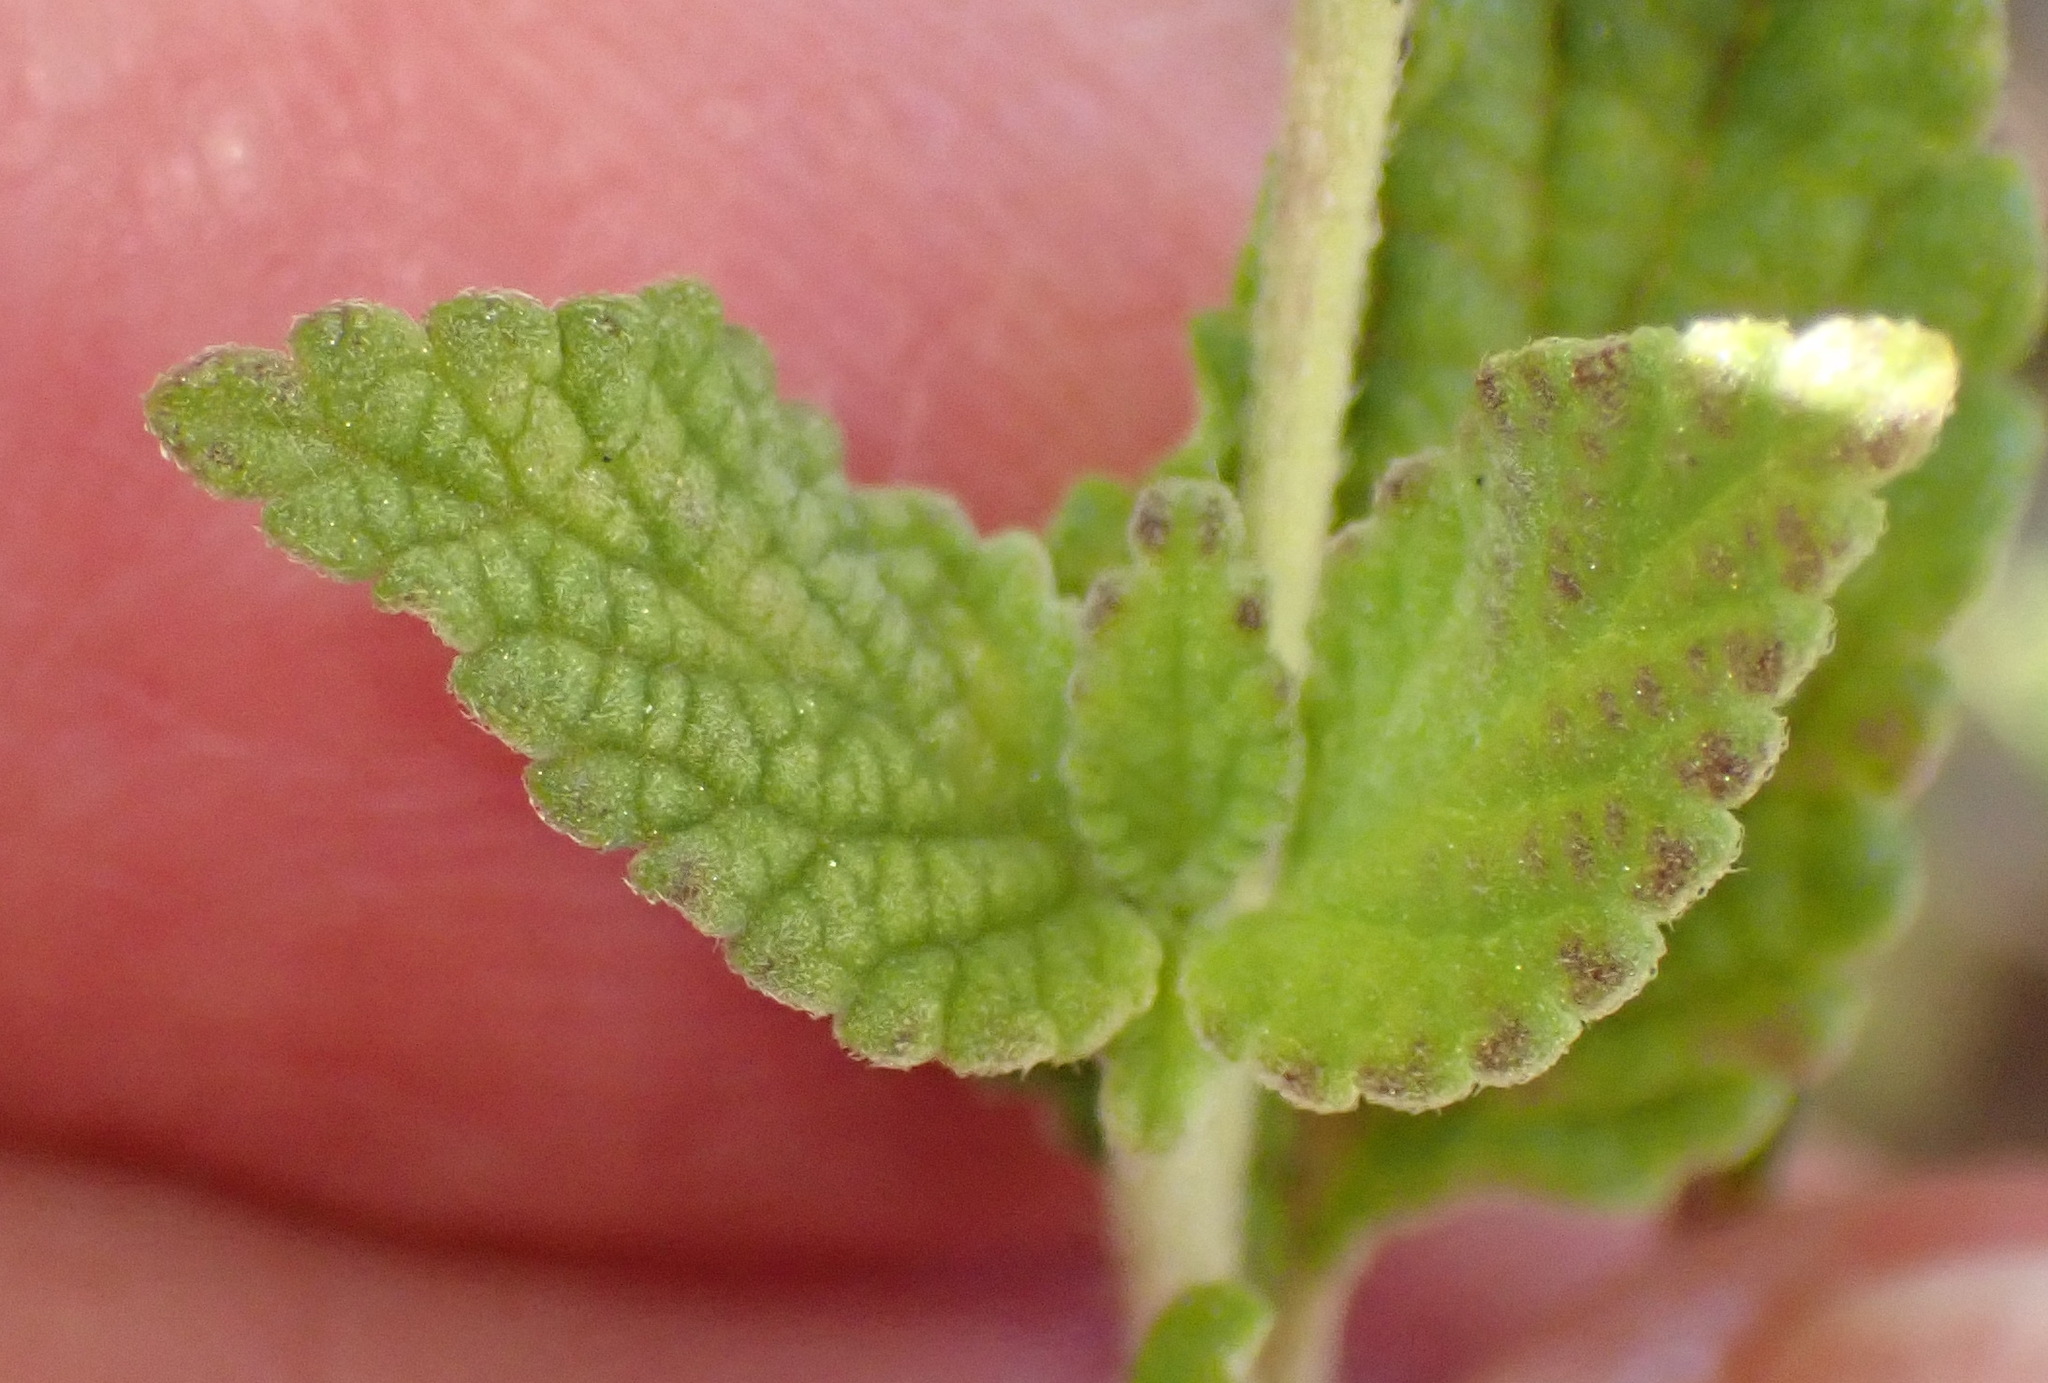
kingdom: Plantae
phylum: Tracheophyta
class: Magnoliopsida
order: Lamiales
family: Verbenaceae
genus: Lantana
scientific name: Lantana rugosa
